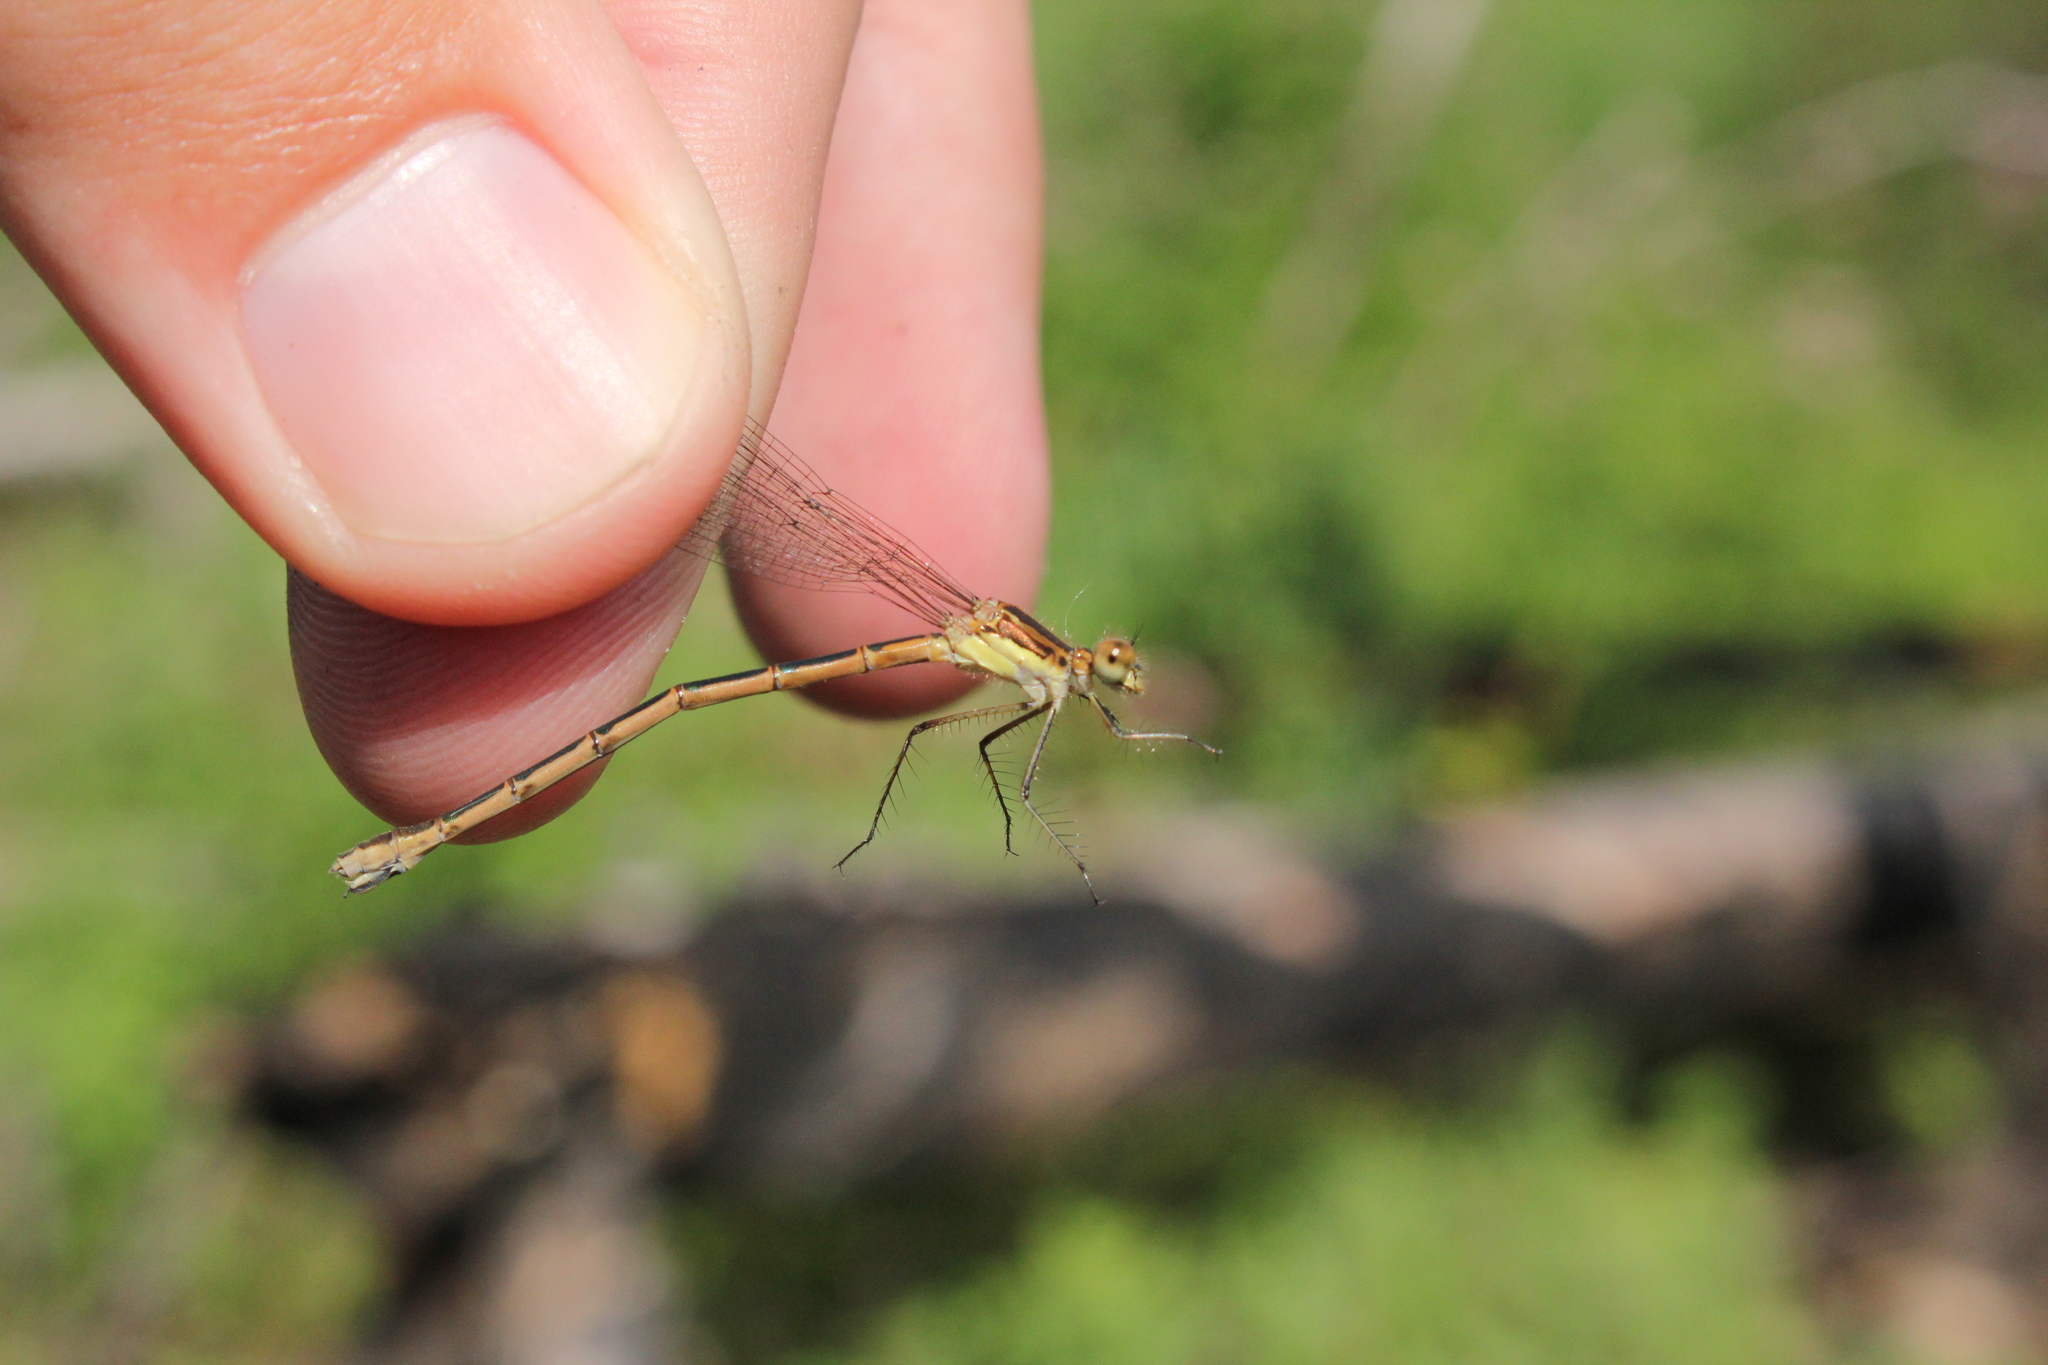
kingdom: Animalia
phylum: Arthropoda
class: Insecta
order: Odonata
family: Lestidae
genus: Lestes
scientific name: Lestes disjunctus
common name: Northern spreadwing
